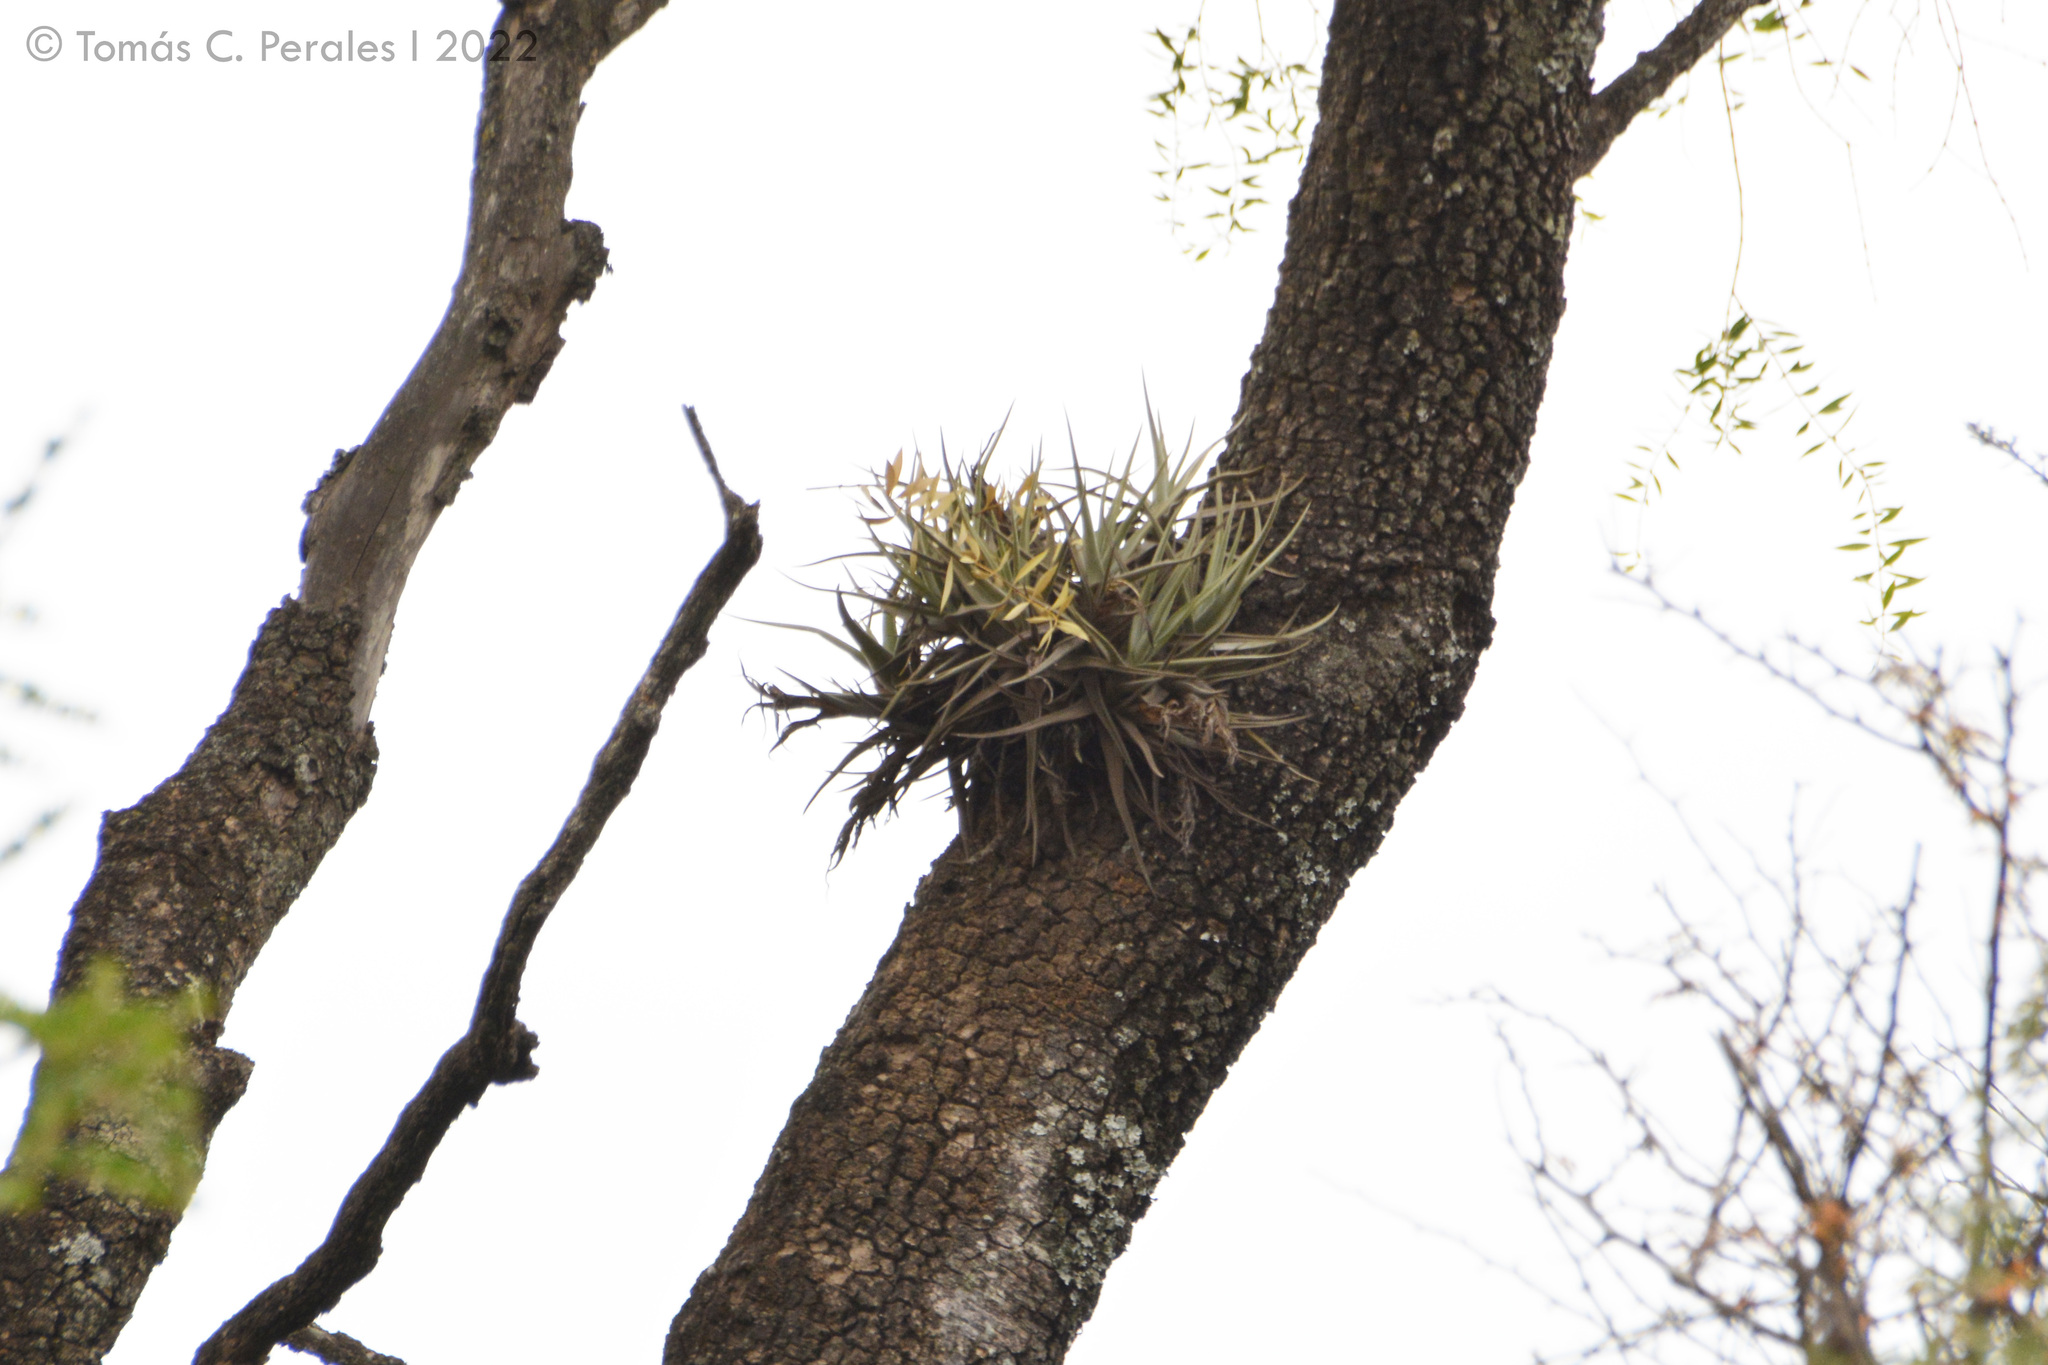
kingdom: Plantae
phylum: Tracheophyta
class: Liliopsida
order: Poales
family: Bromeliaceae
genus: Tillandsia
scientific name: Tillandsia xiphioides
